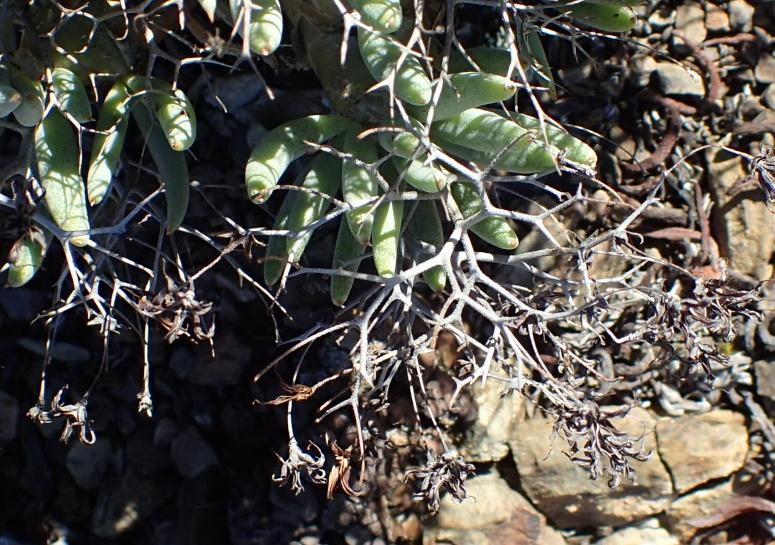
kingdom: Plantae
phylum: Tracheophyta
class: Magnoliopsida
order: Saxifragales
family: Crassulaceae
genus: Tylecodon
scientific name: Tylecodon reticulatus
